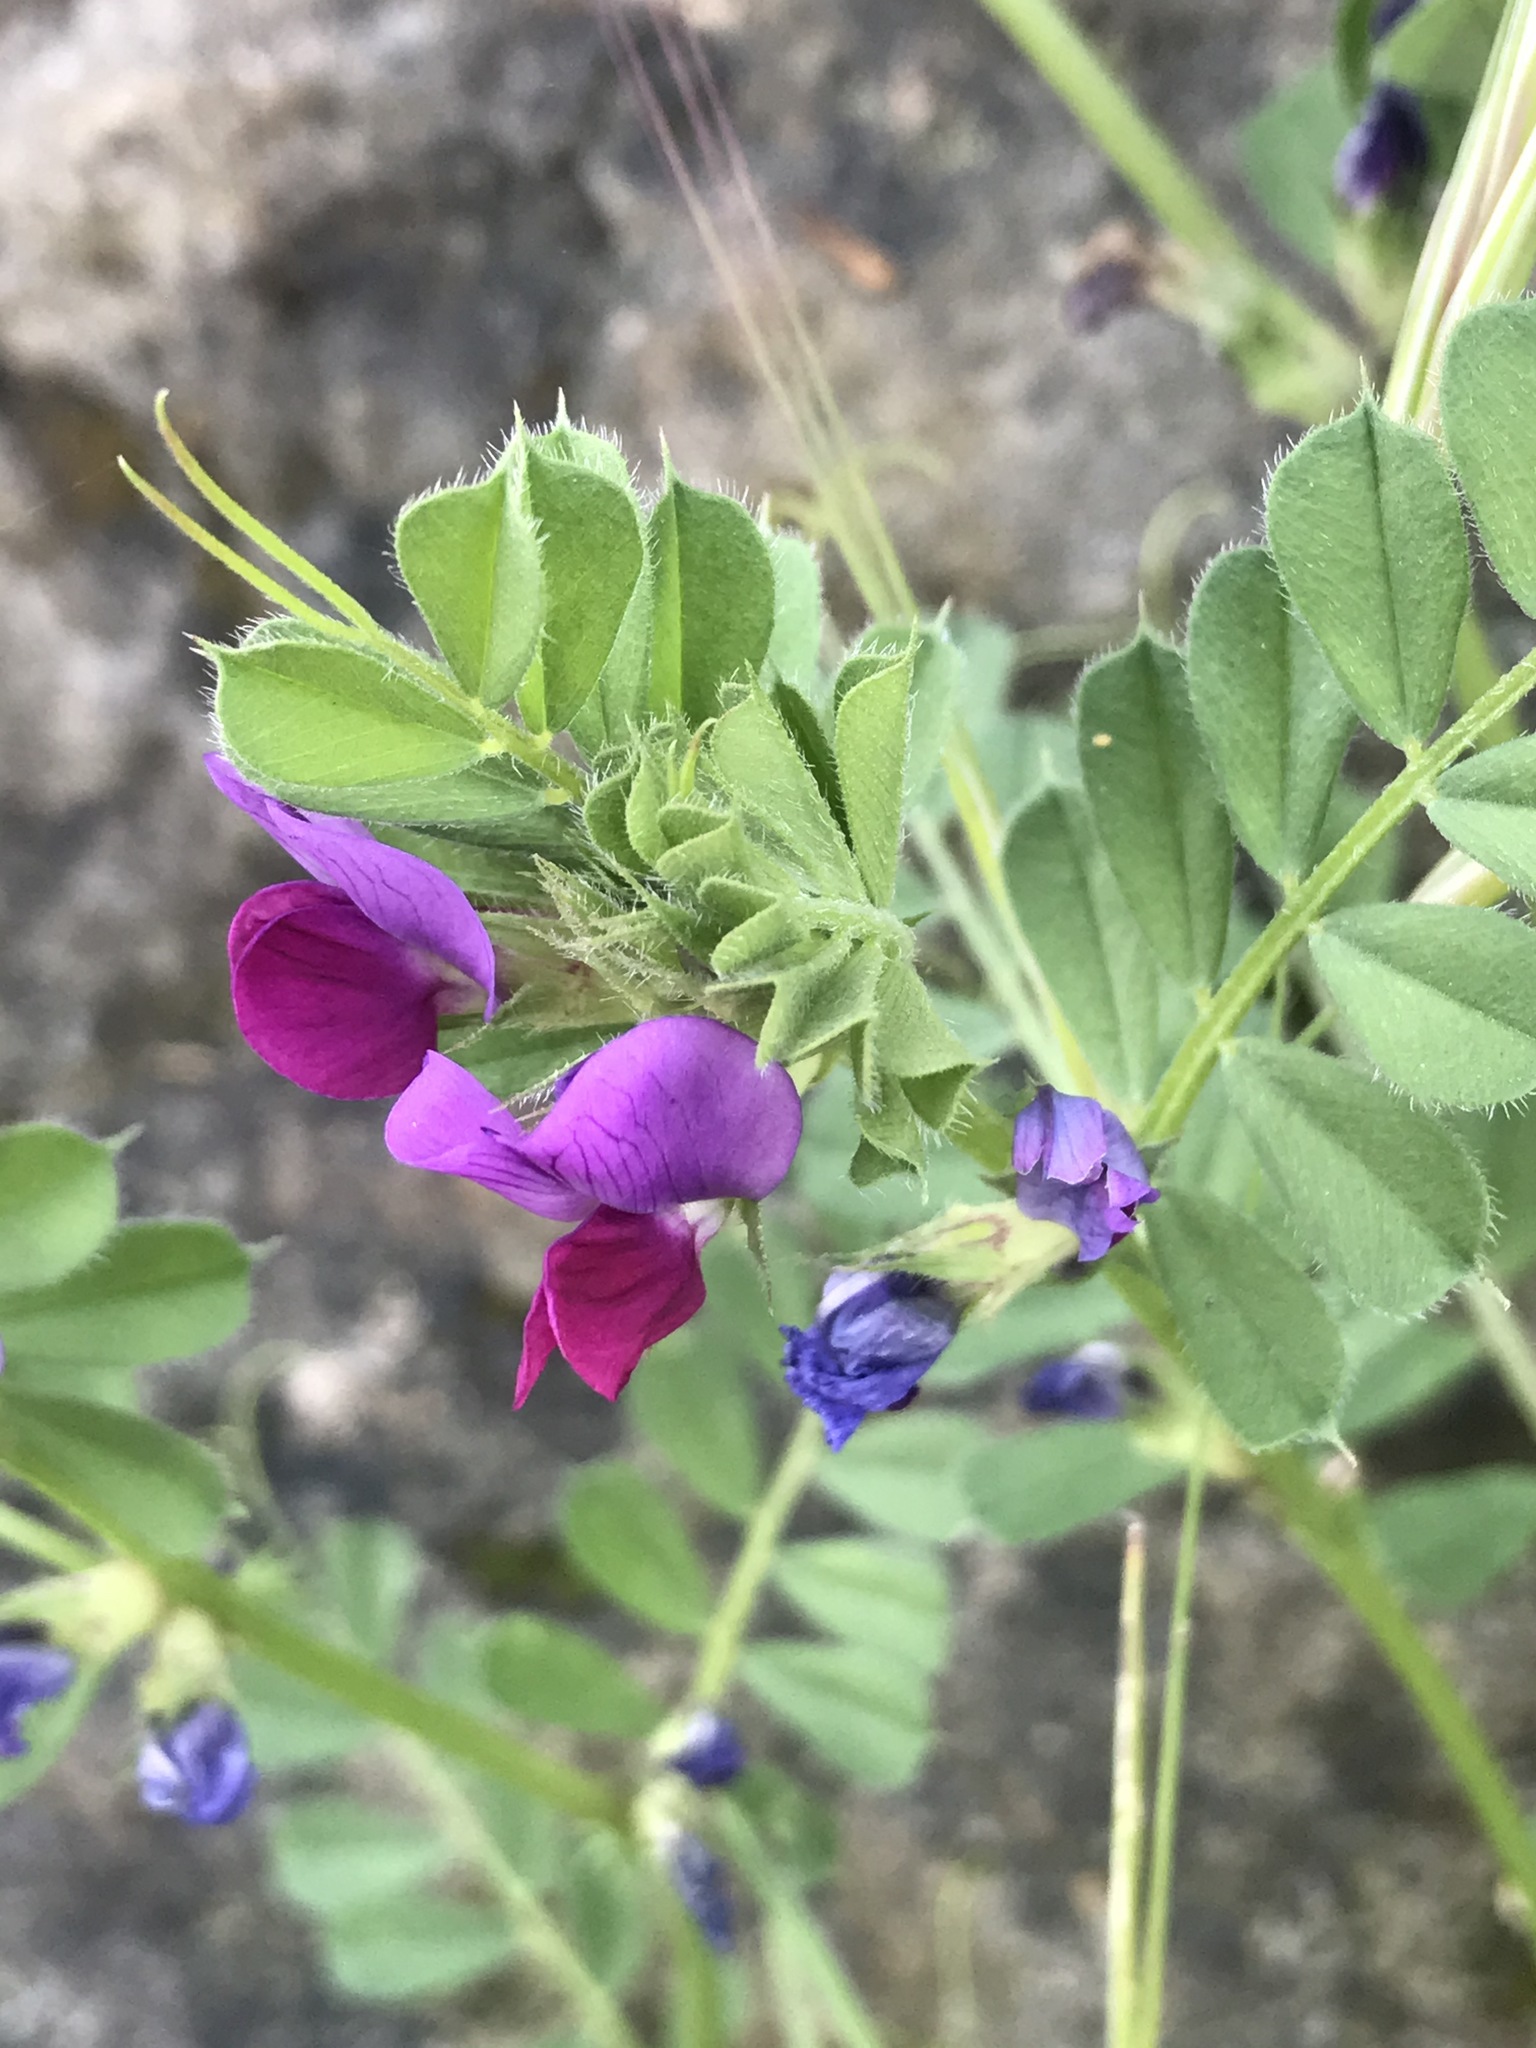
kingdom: Plantae
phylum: Tracheophyta
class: Magnoliopsida
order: Fabales
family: Fabaceae
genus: Vicia
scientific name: Vicia sativa
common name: Garden vetch
